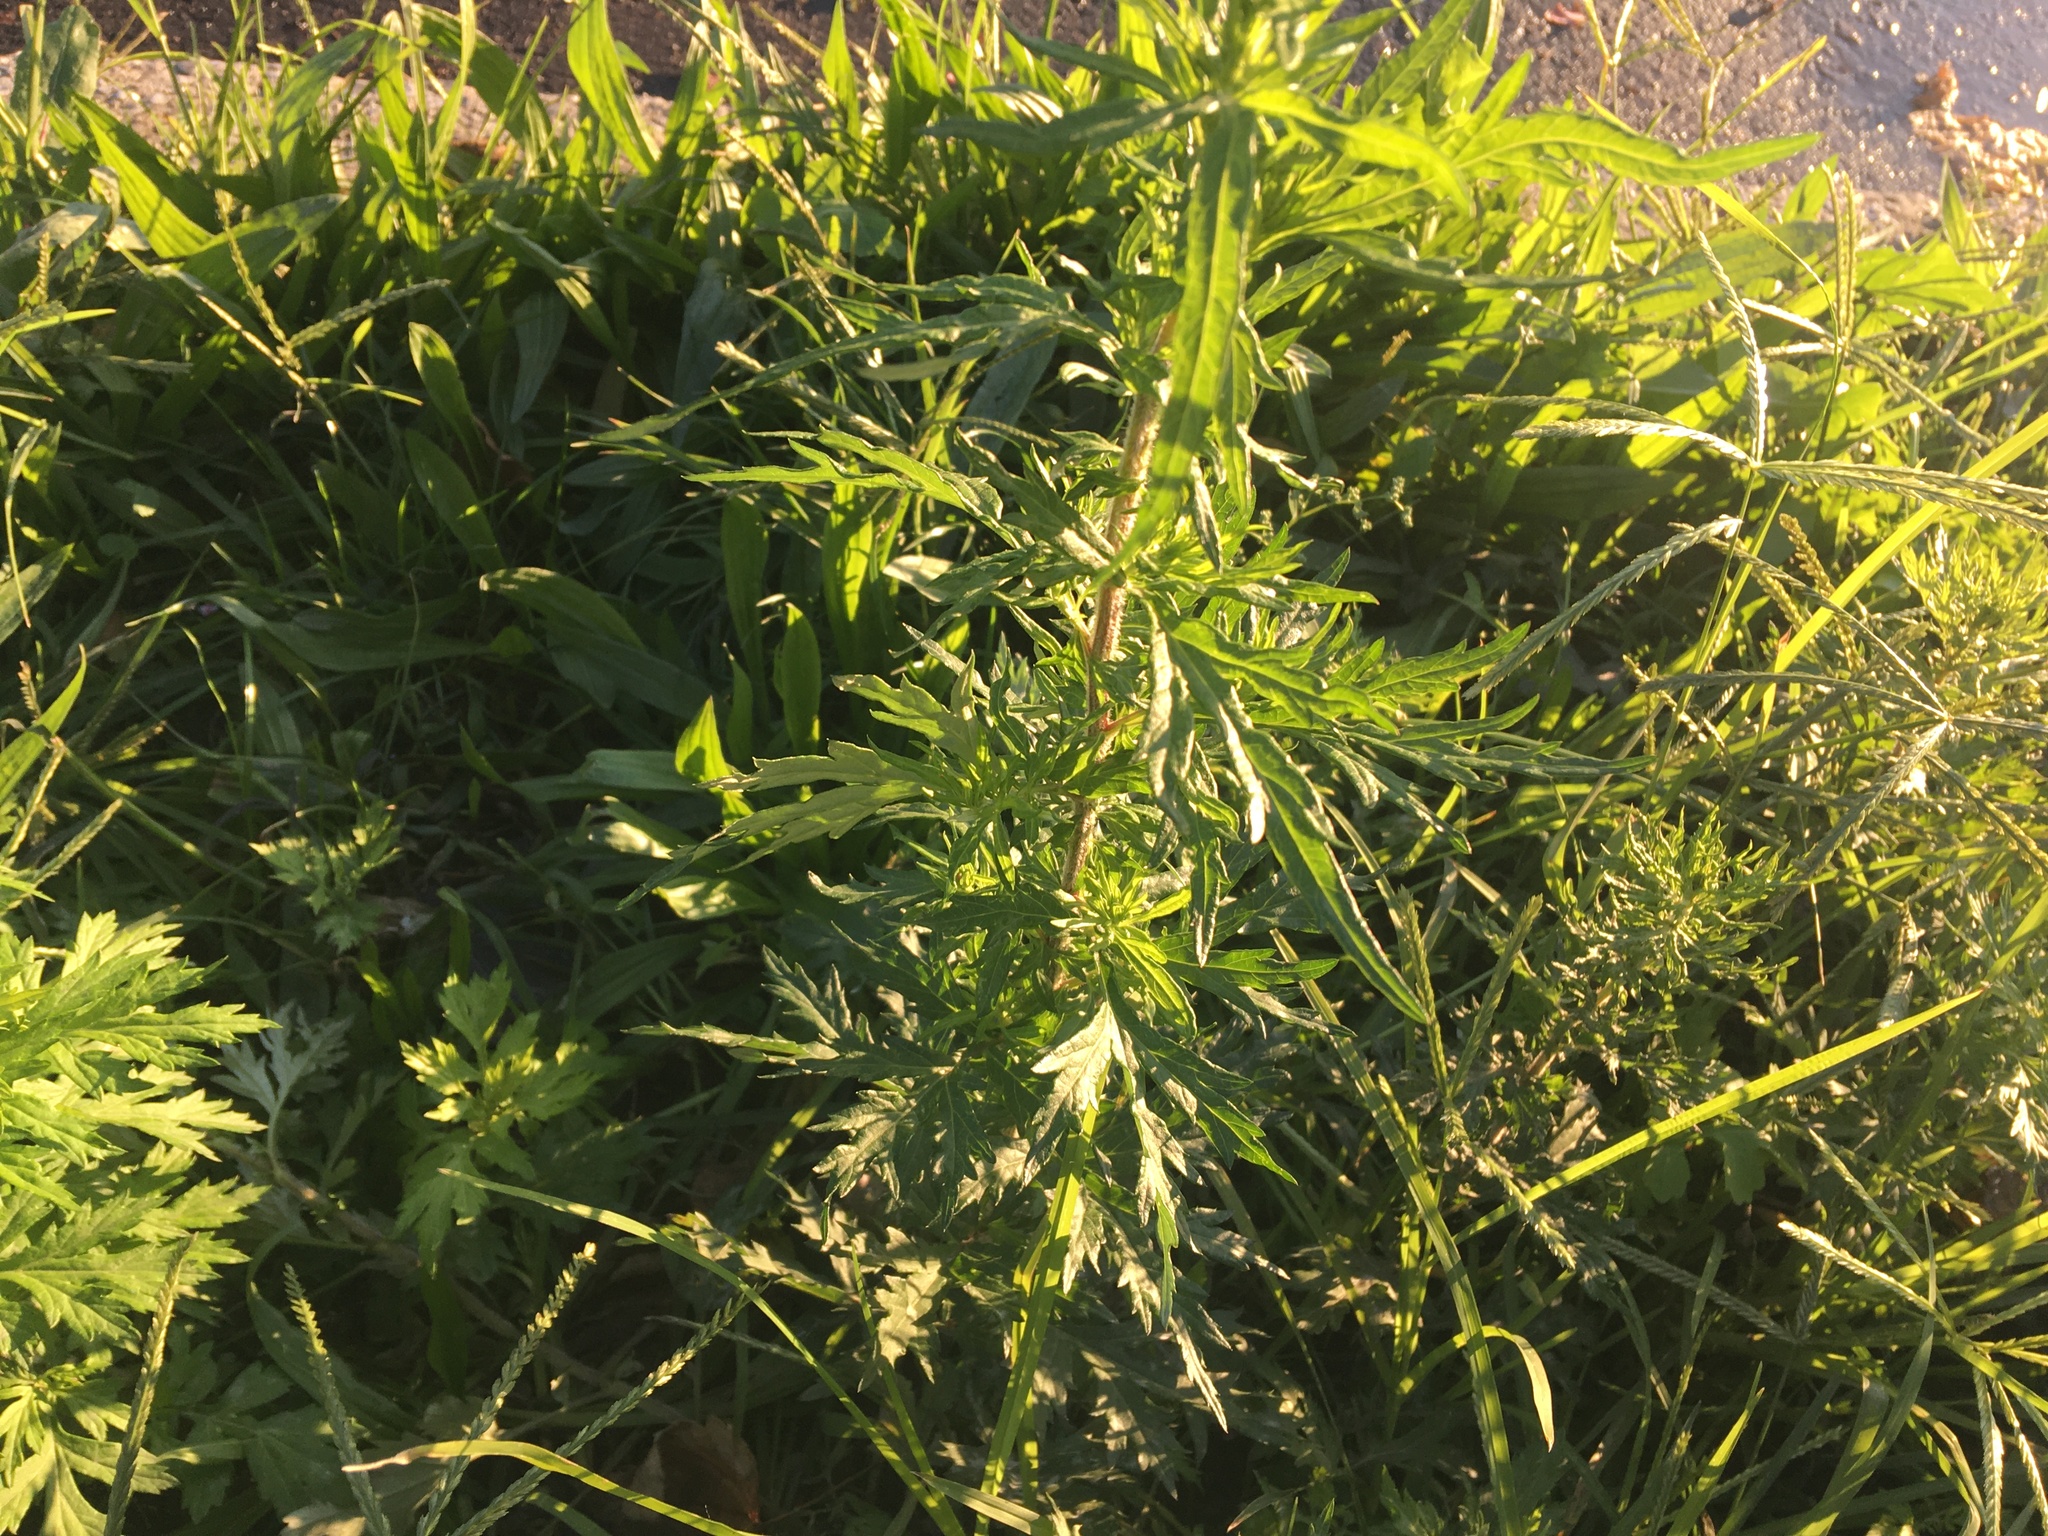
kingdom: Plantae
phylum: Tracheophyta
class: Magnoliopsida
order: Asterales
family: Asteraceae
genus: Artemisia
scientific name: Artemisia vulgaris
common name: Mugwort
